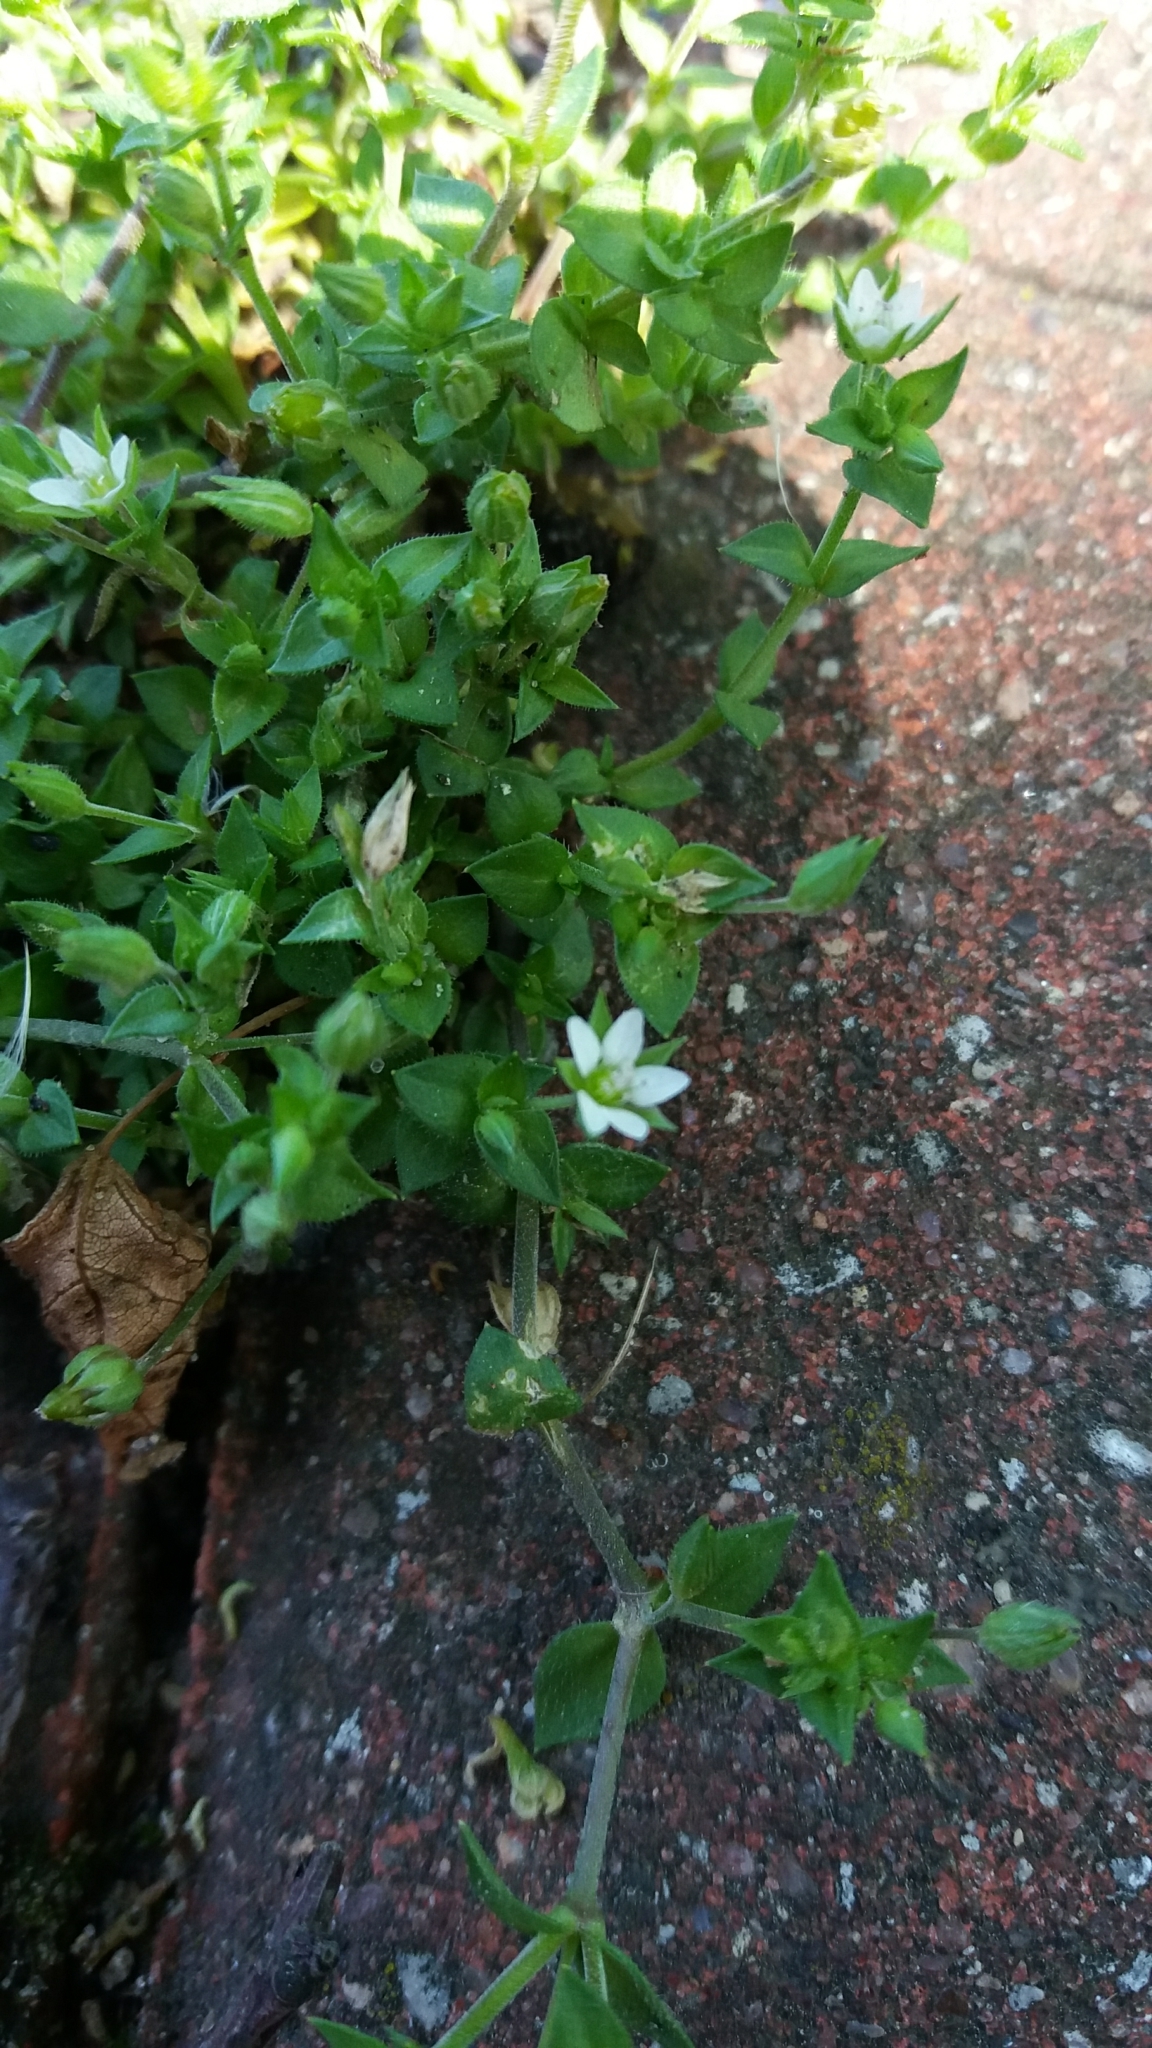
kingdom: Plantae
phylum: Tracheophyta
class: Magnoliopsida
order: Caryophyllales
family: Caryophyllaceae
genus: Arenaria
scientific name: Arenaria serpyllifolia
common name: Thyme-leaved sandwort
